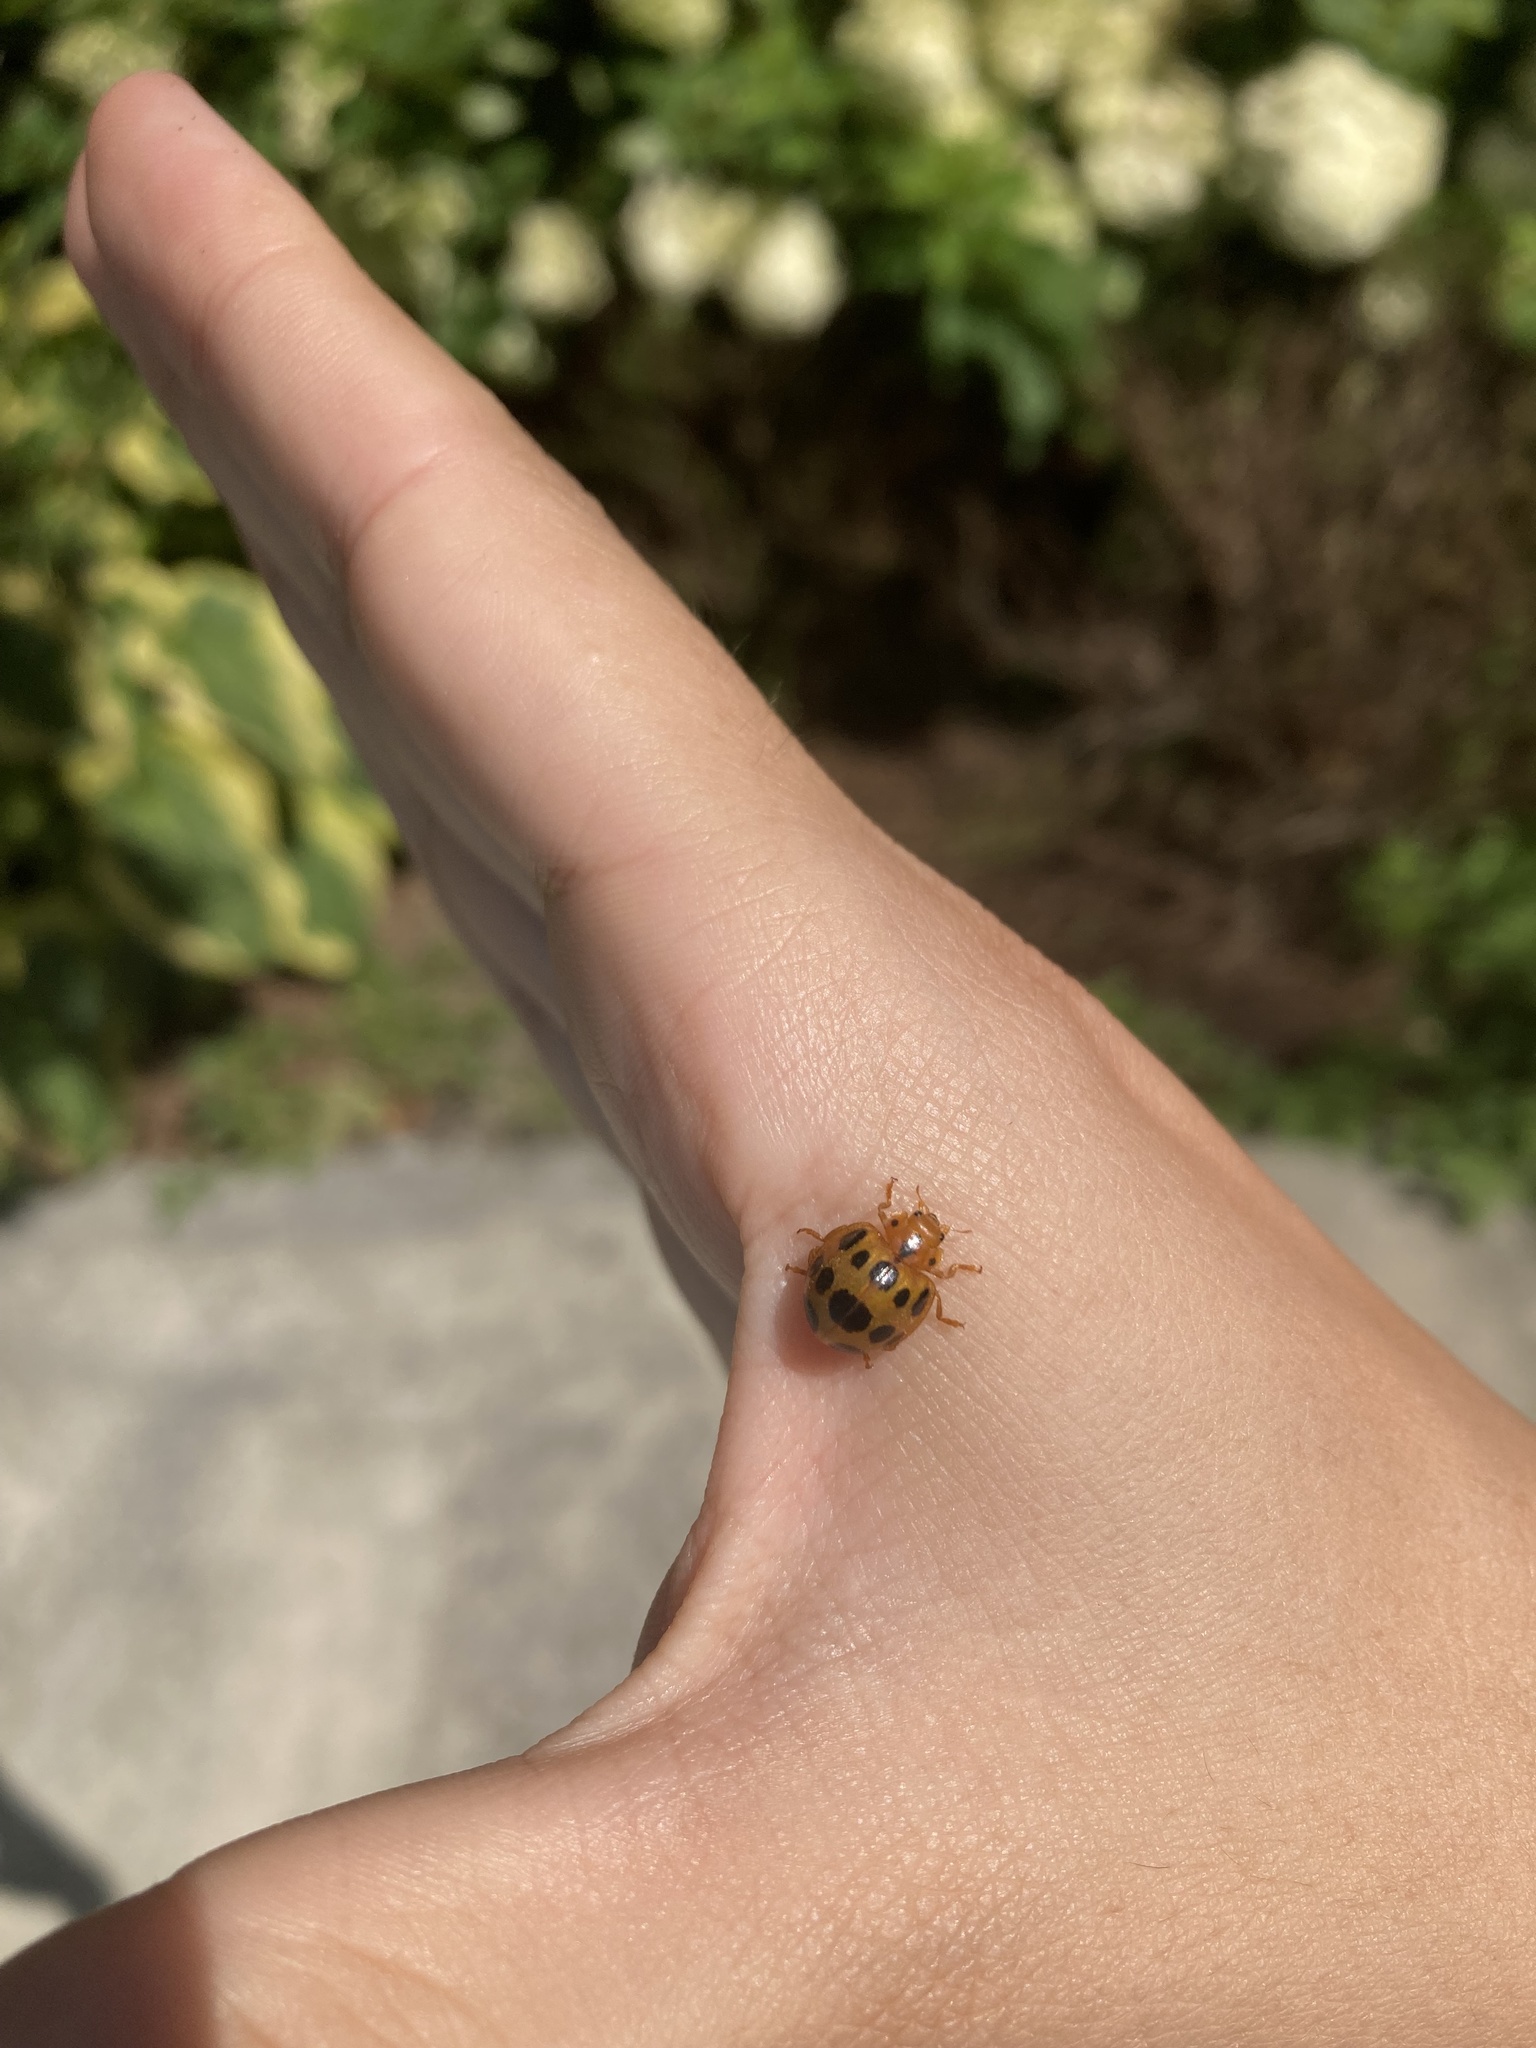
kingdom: Animalia
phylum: Arthropoda
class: Insecta
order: Coleoptera
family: Coccinellidae
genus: Epilachna
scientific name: Epilachna borealis
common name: Squash beetle
